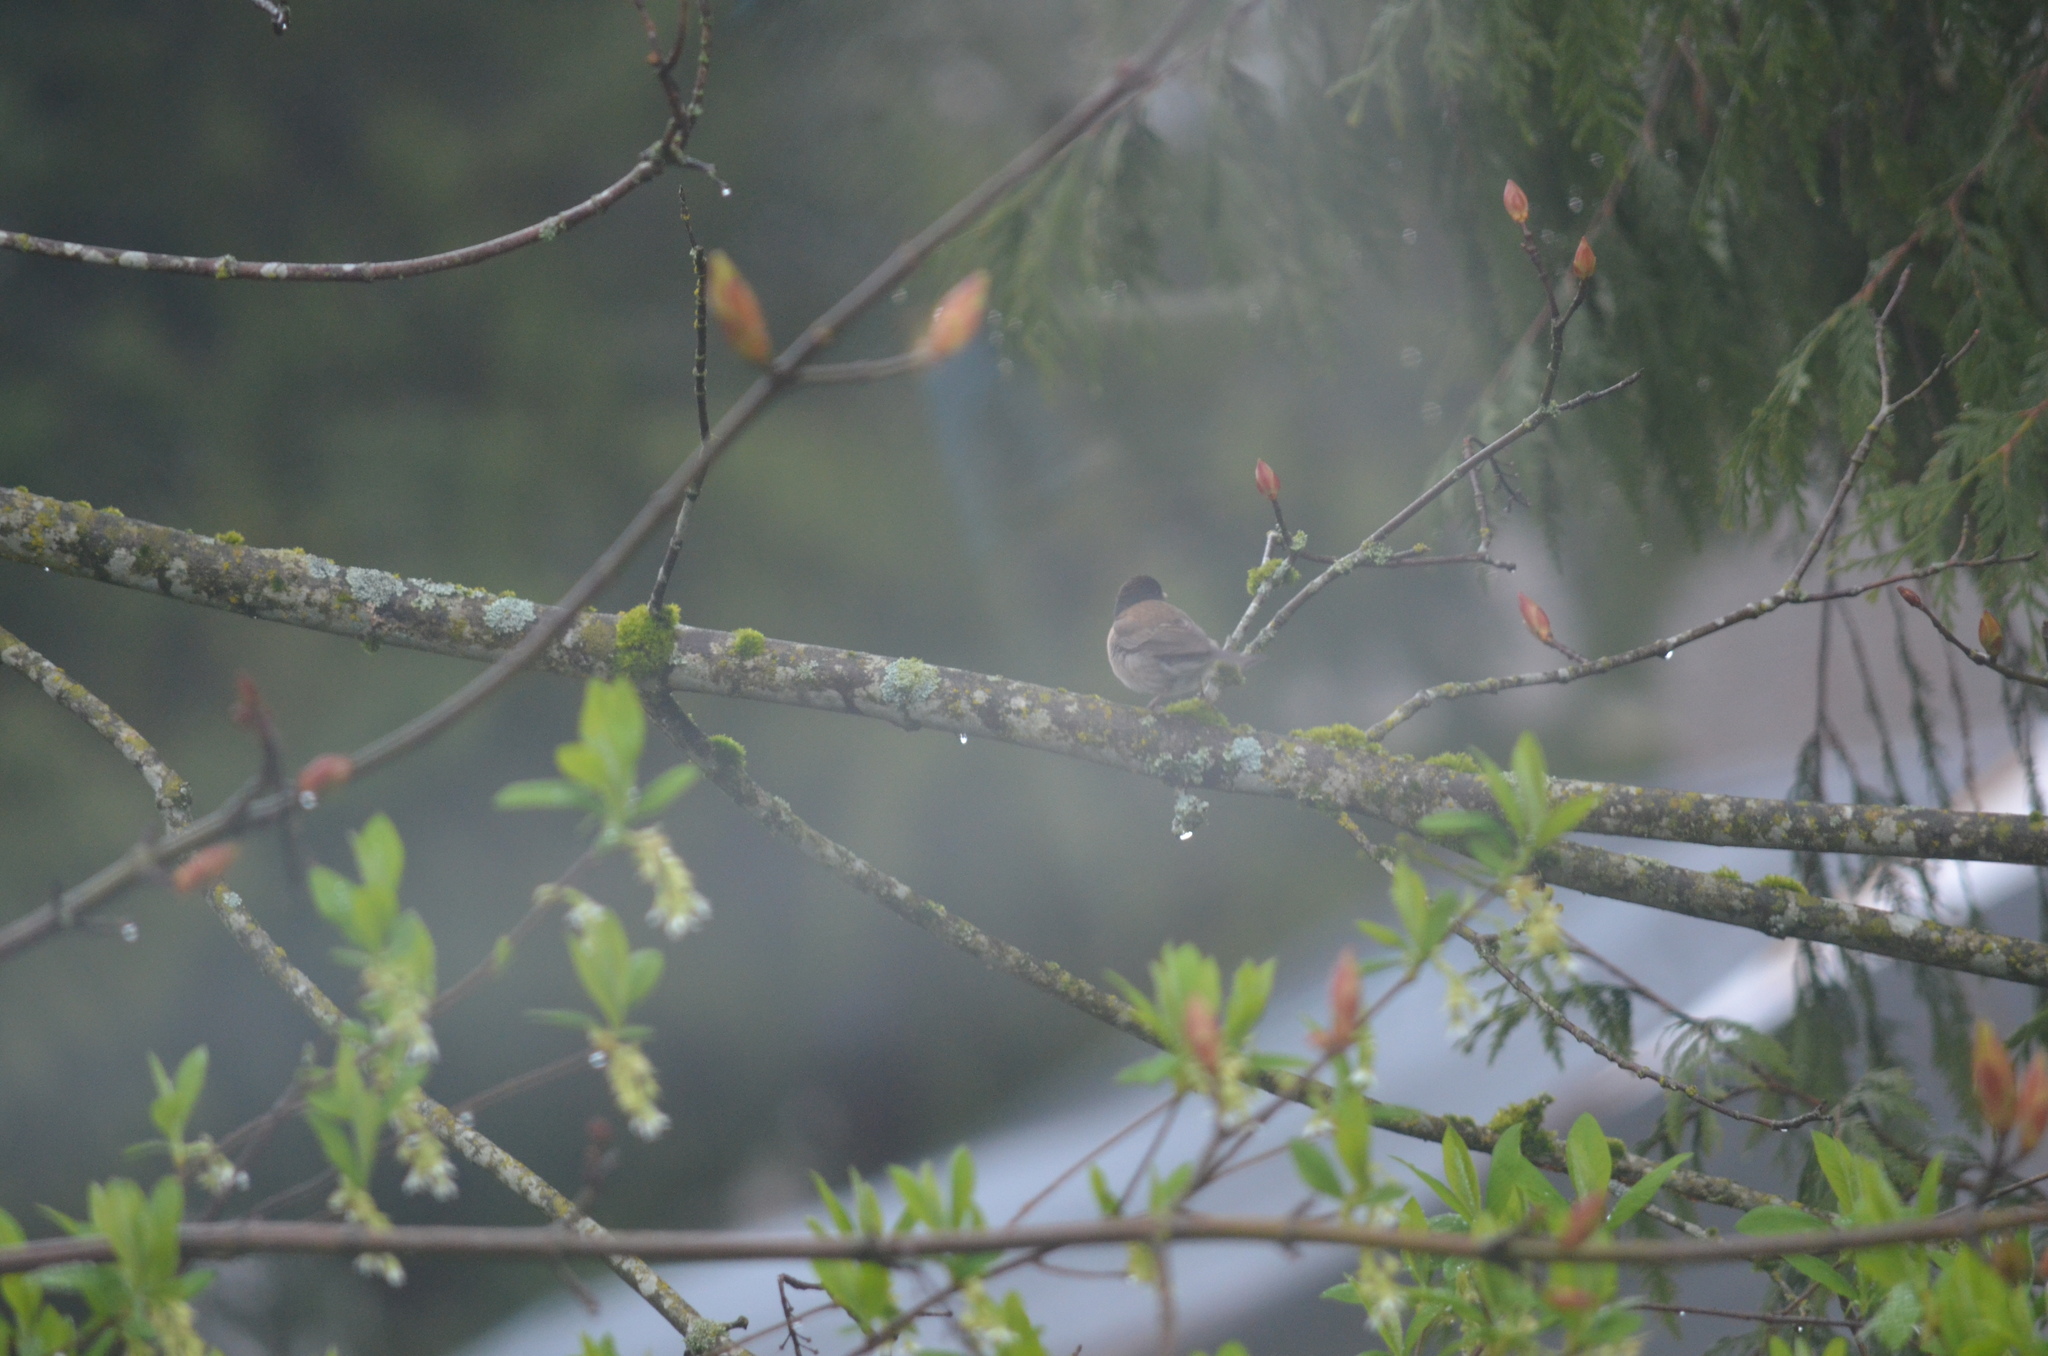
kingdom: Animalia
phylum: Chordata
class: Aves
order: Passeriformes
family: Passerellidae
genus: Junco
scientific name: Junco hyemalis
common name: Dark-eyed junco
